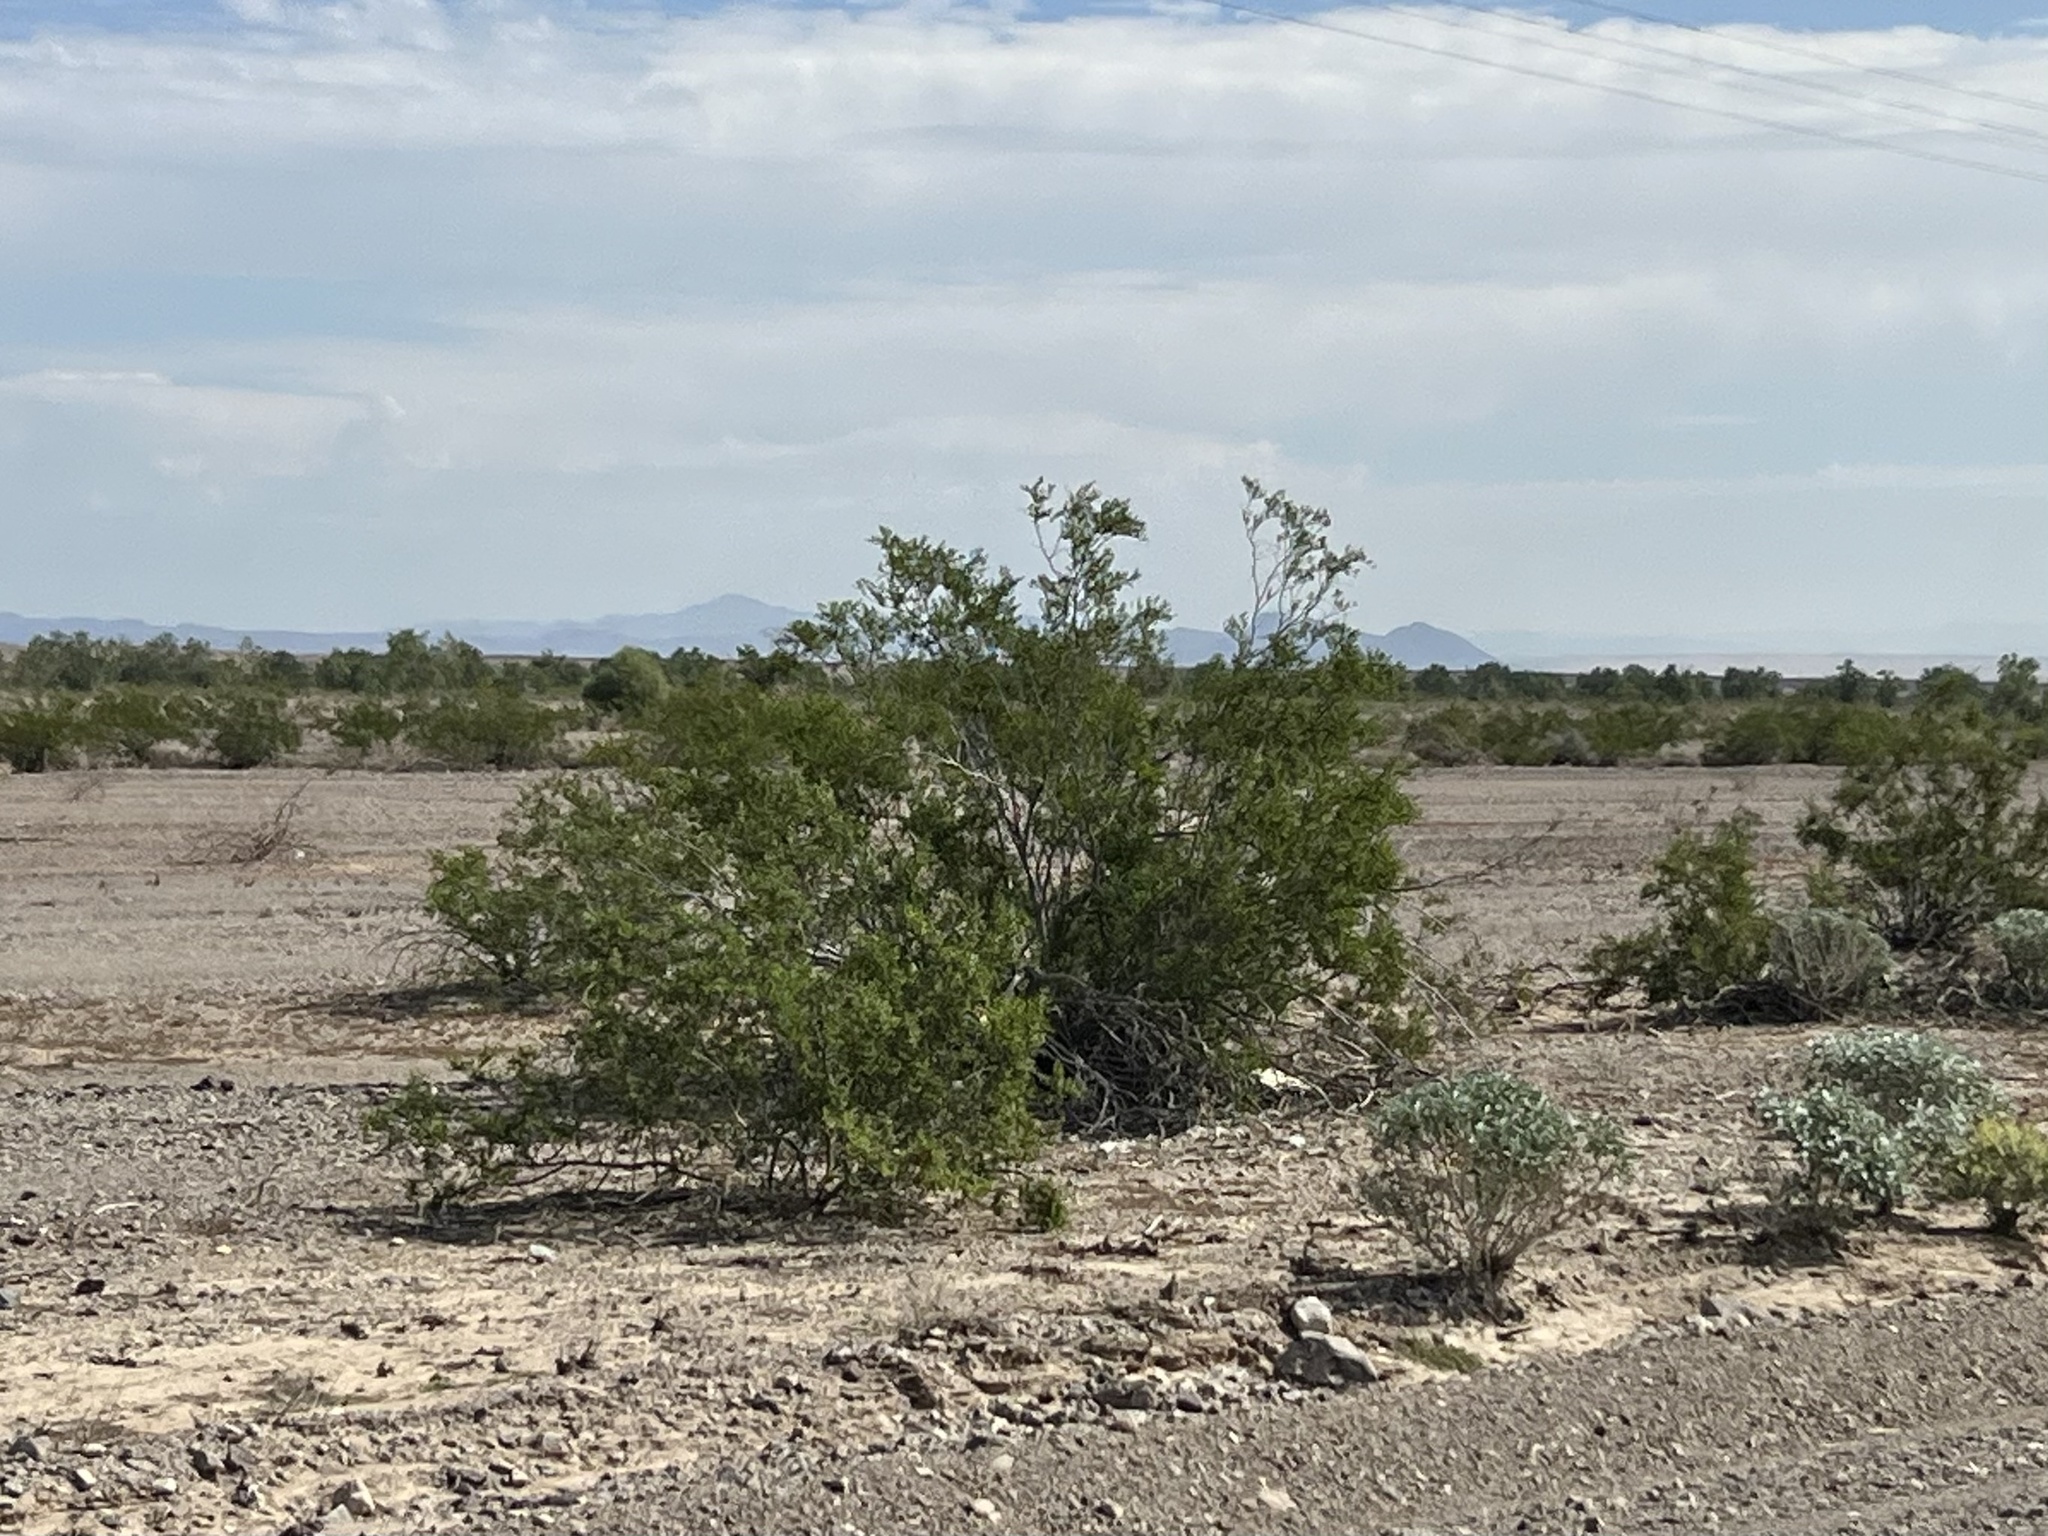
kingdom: Plantae
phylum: Tracheophyta
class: Magnoliopsida
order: Zygophyllales
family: Zygophyllaceae
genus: Larrea
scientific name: Larrea tridentata
